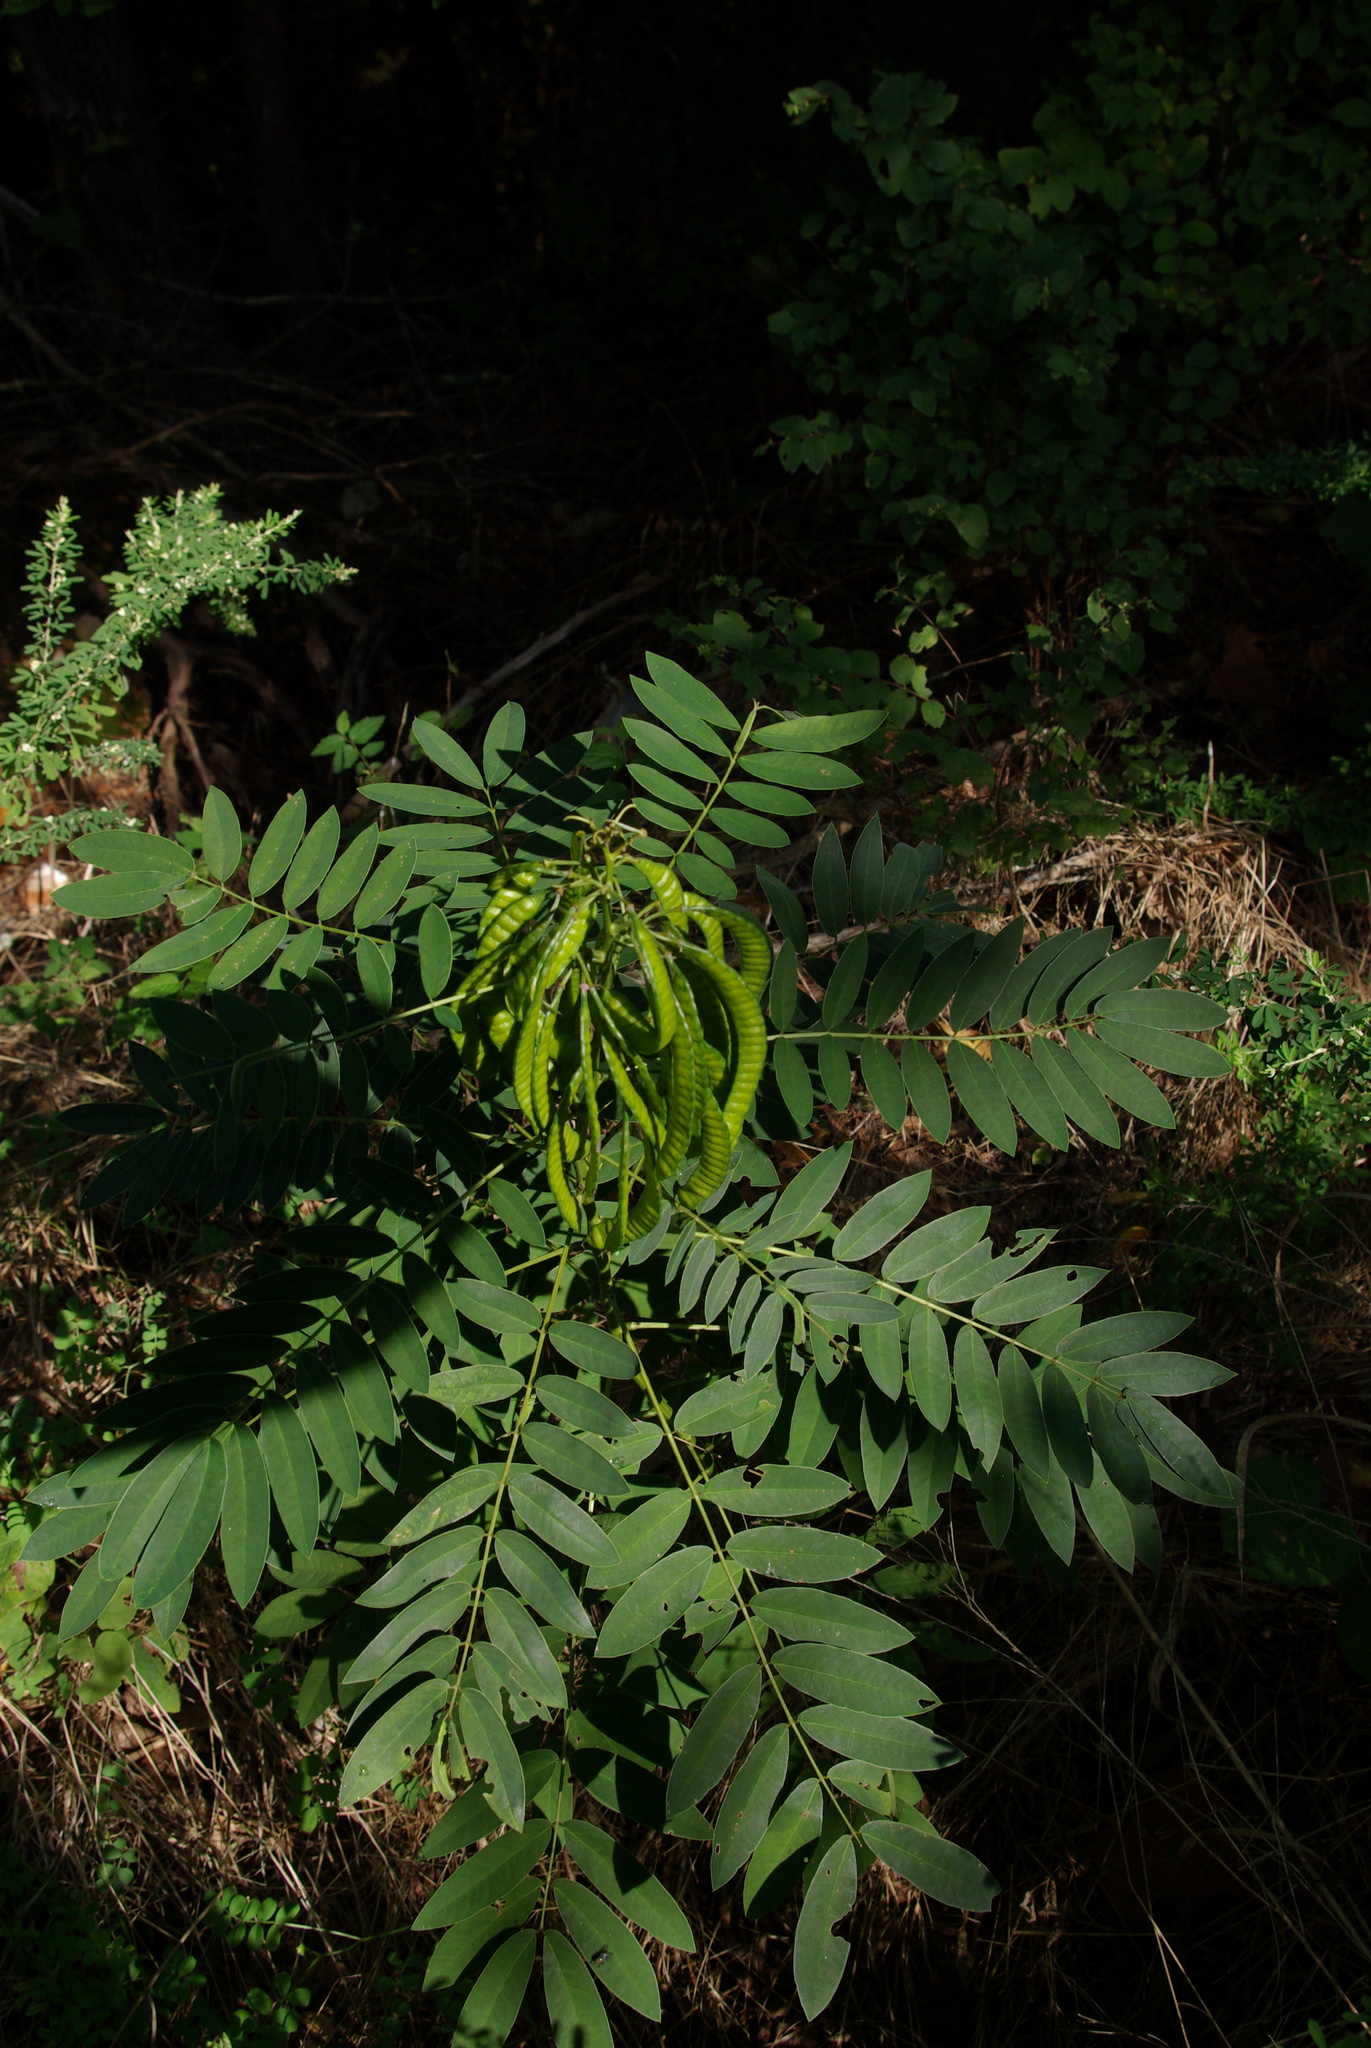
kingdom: Plantae
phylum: Tracheophyta
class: Magnoliopsida
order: Fabales
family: Fabaceae
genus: Senna
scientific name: Senna marilandica
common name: American senna
